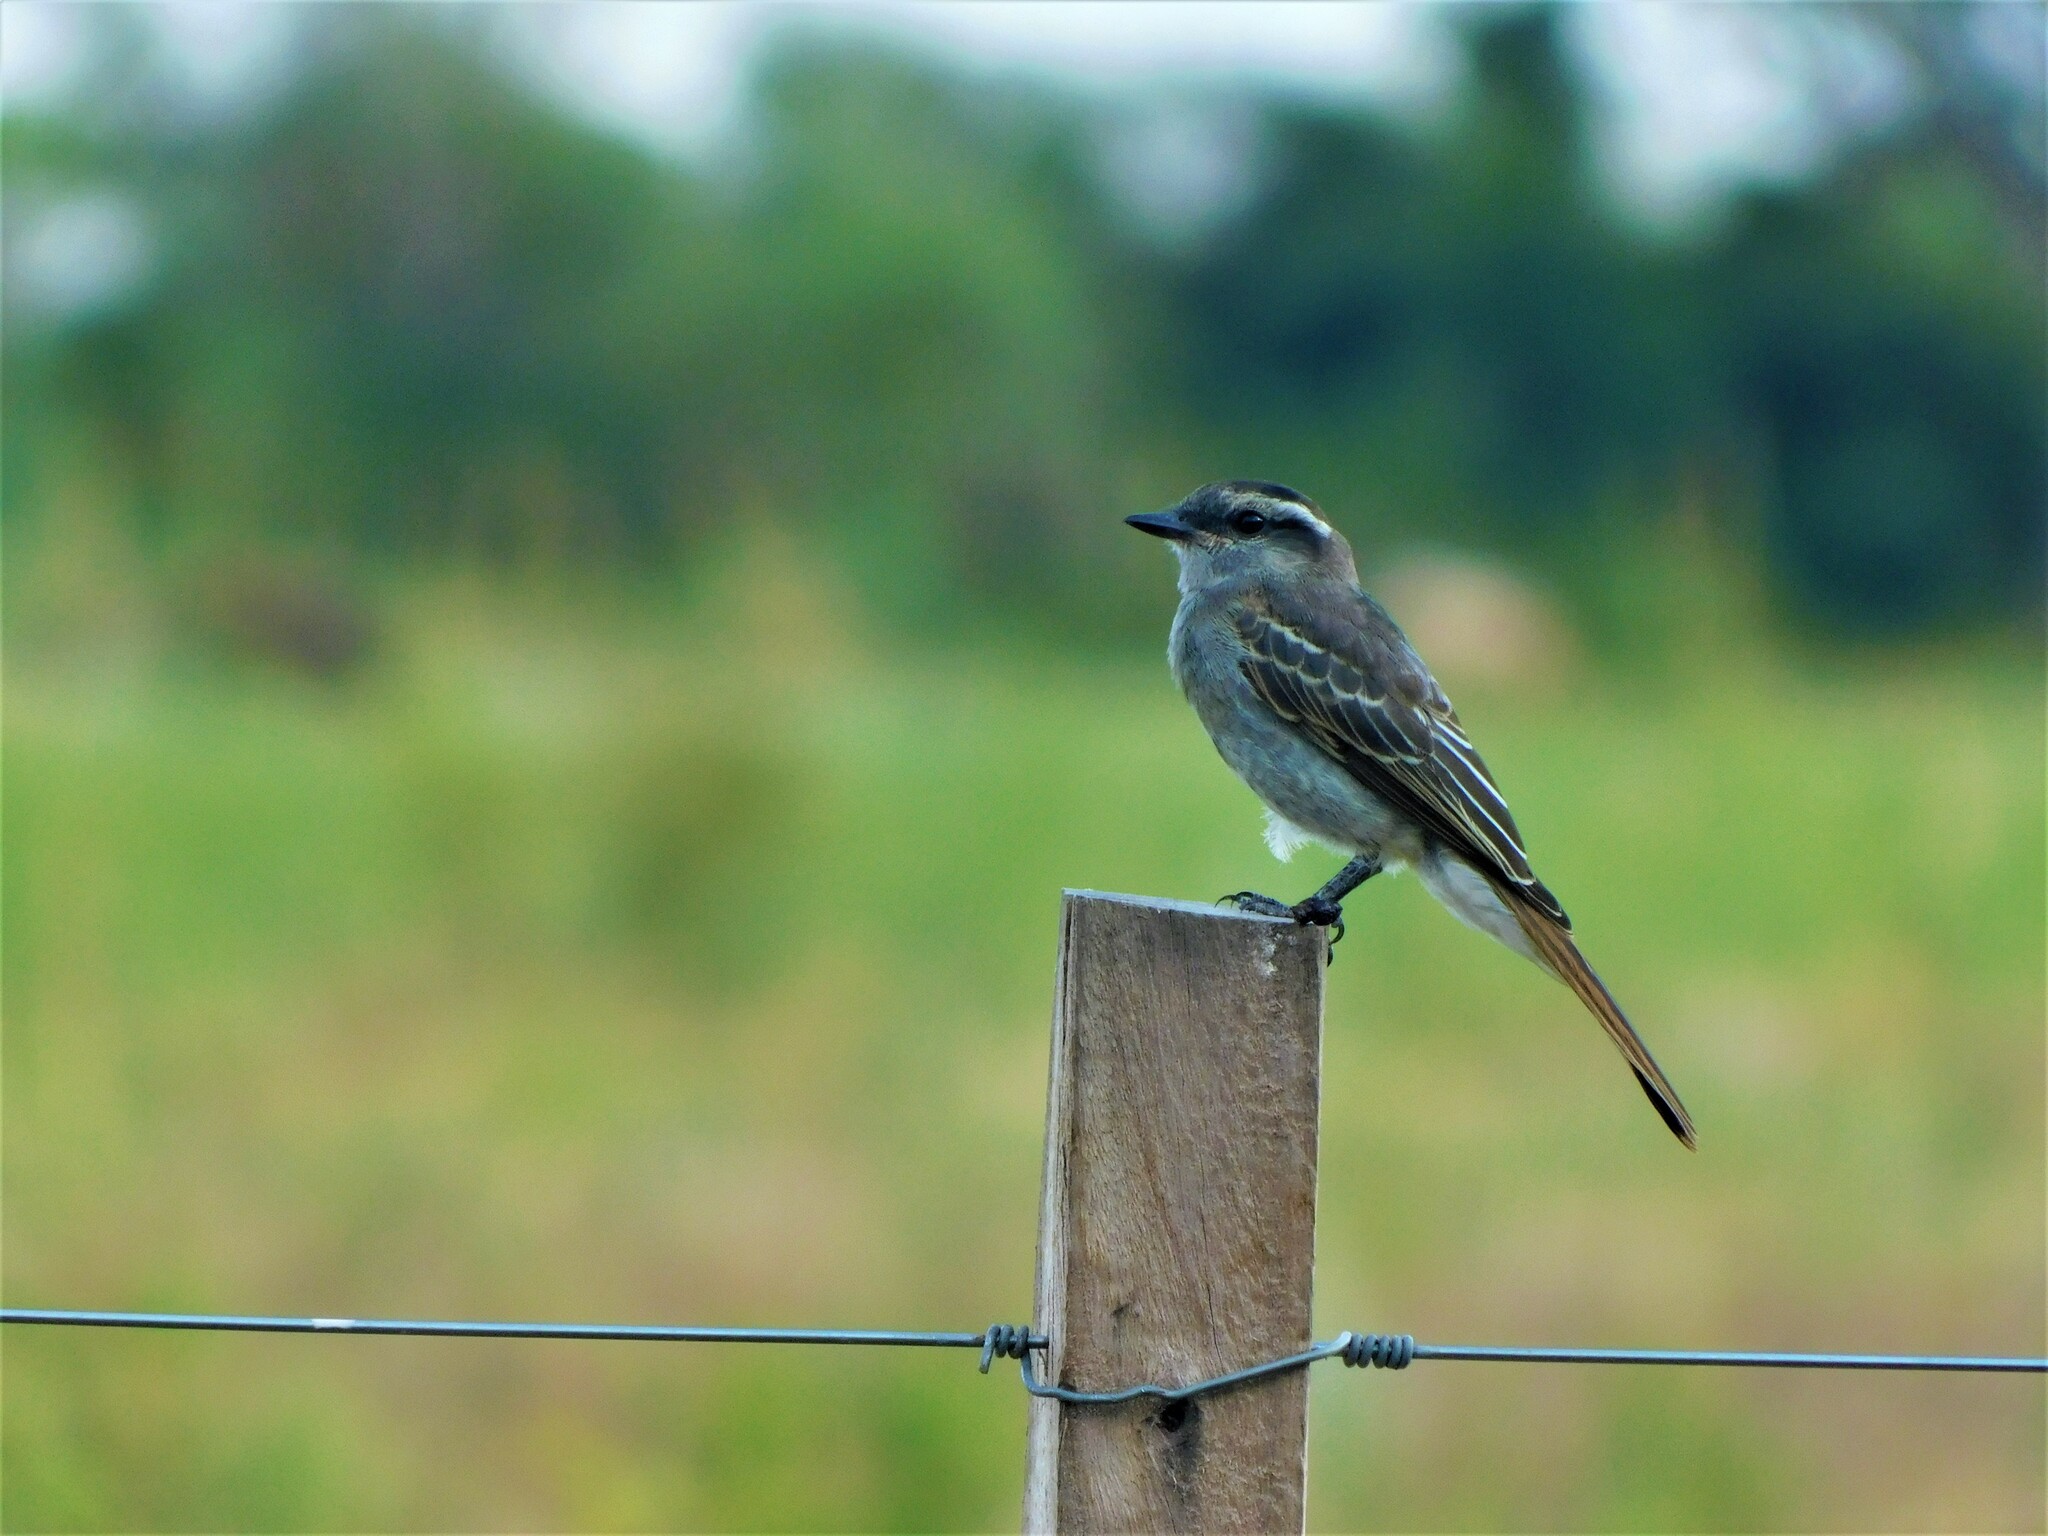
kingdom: Animalia
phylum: Chordata
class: Aves
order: Passeriformes
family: Tyrannidae
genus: Empidonomus
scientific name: Empidonomus aurantioatrocristatus
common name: Crowned slaty flycatcher
